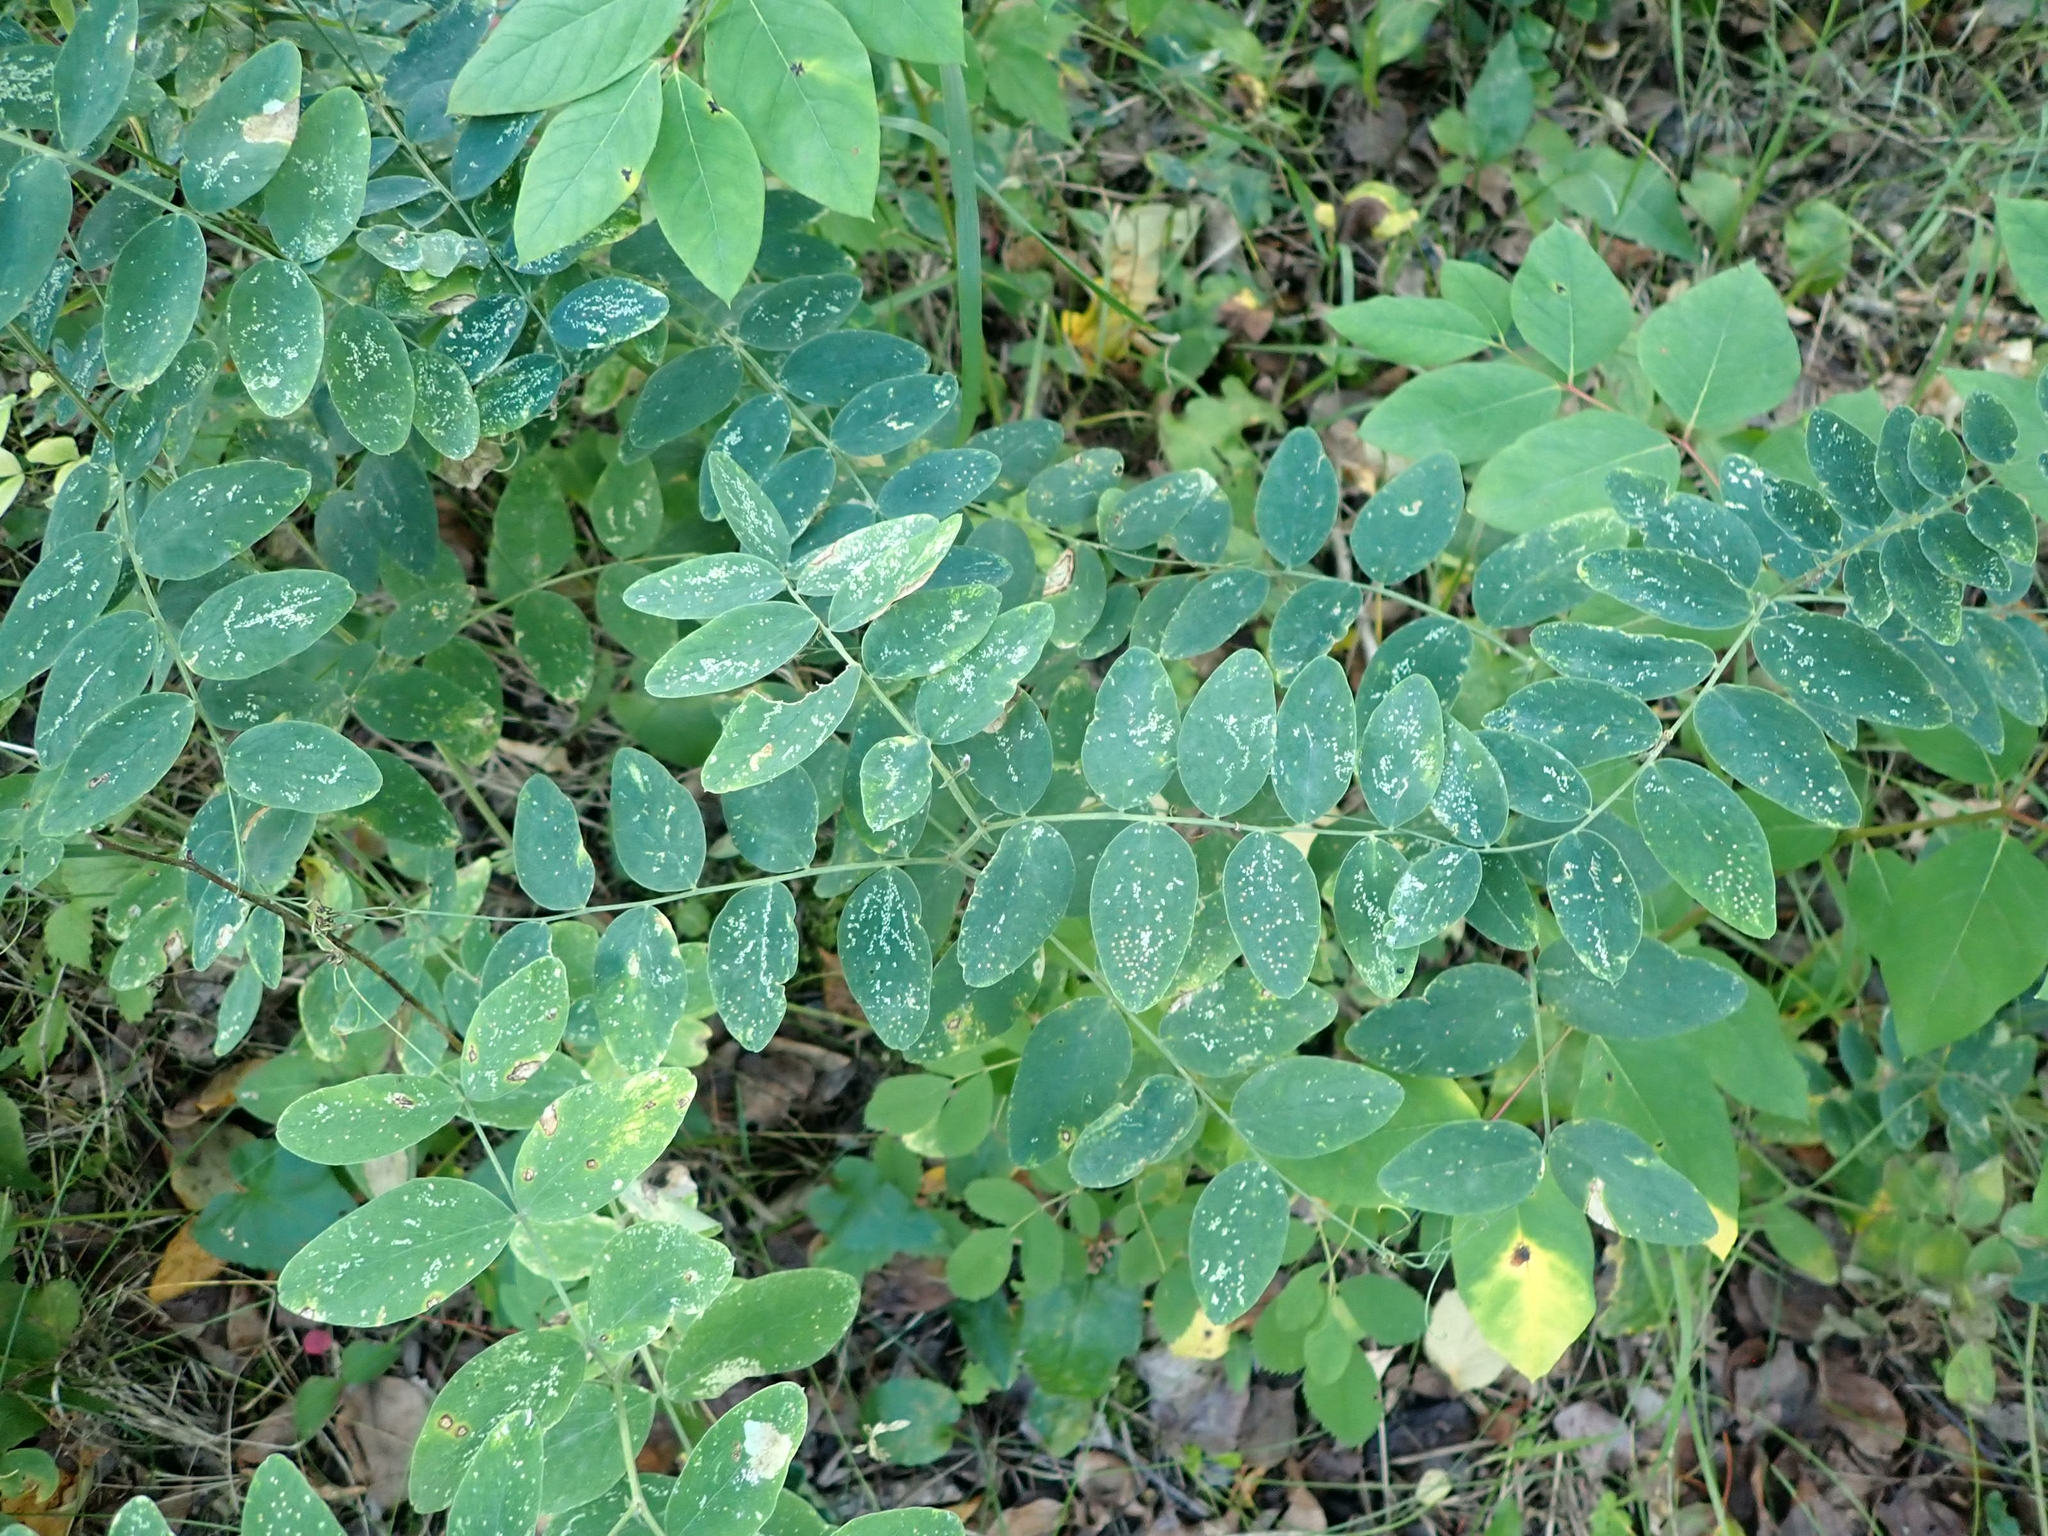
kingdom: Plantae
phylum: Tracheophyta
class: Magnoliopsida
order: Fabales
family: Fabaceae
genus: Lathyrus
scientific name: Lathyrus venosus
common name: Forest-pea
